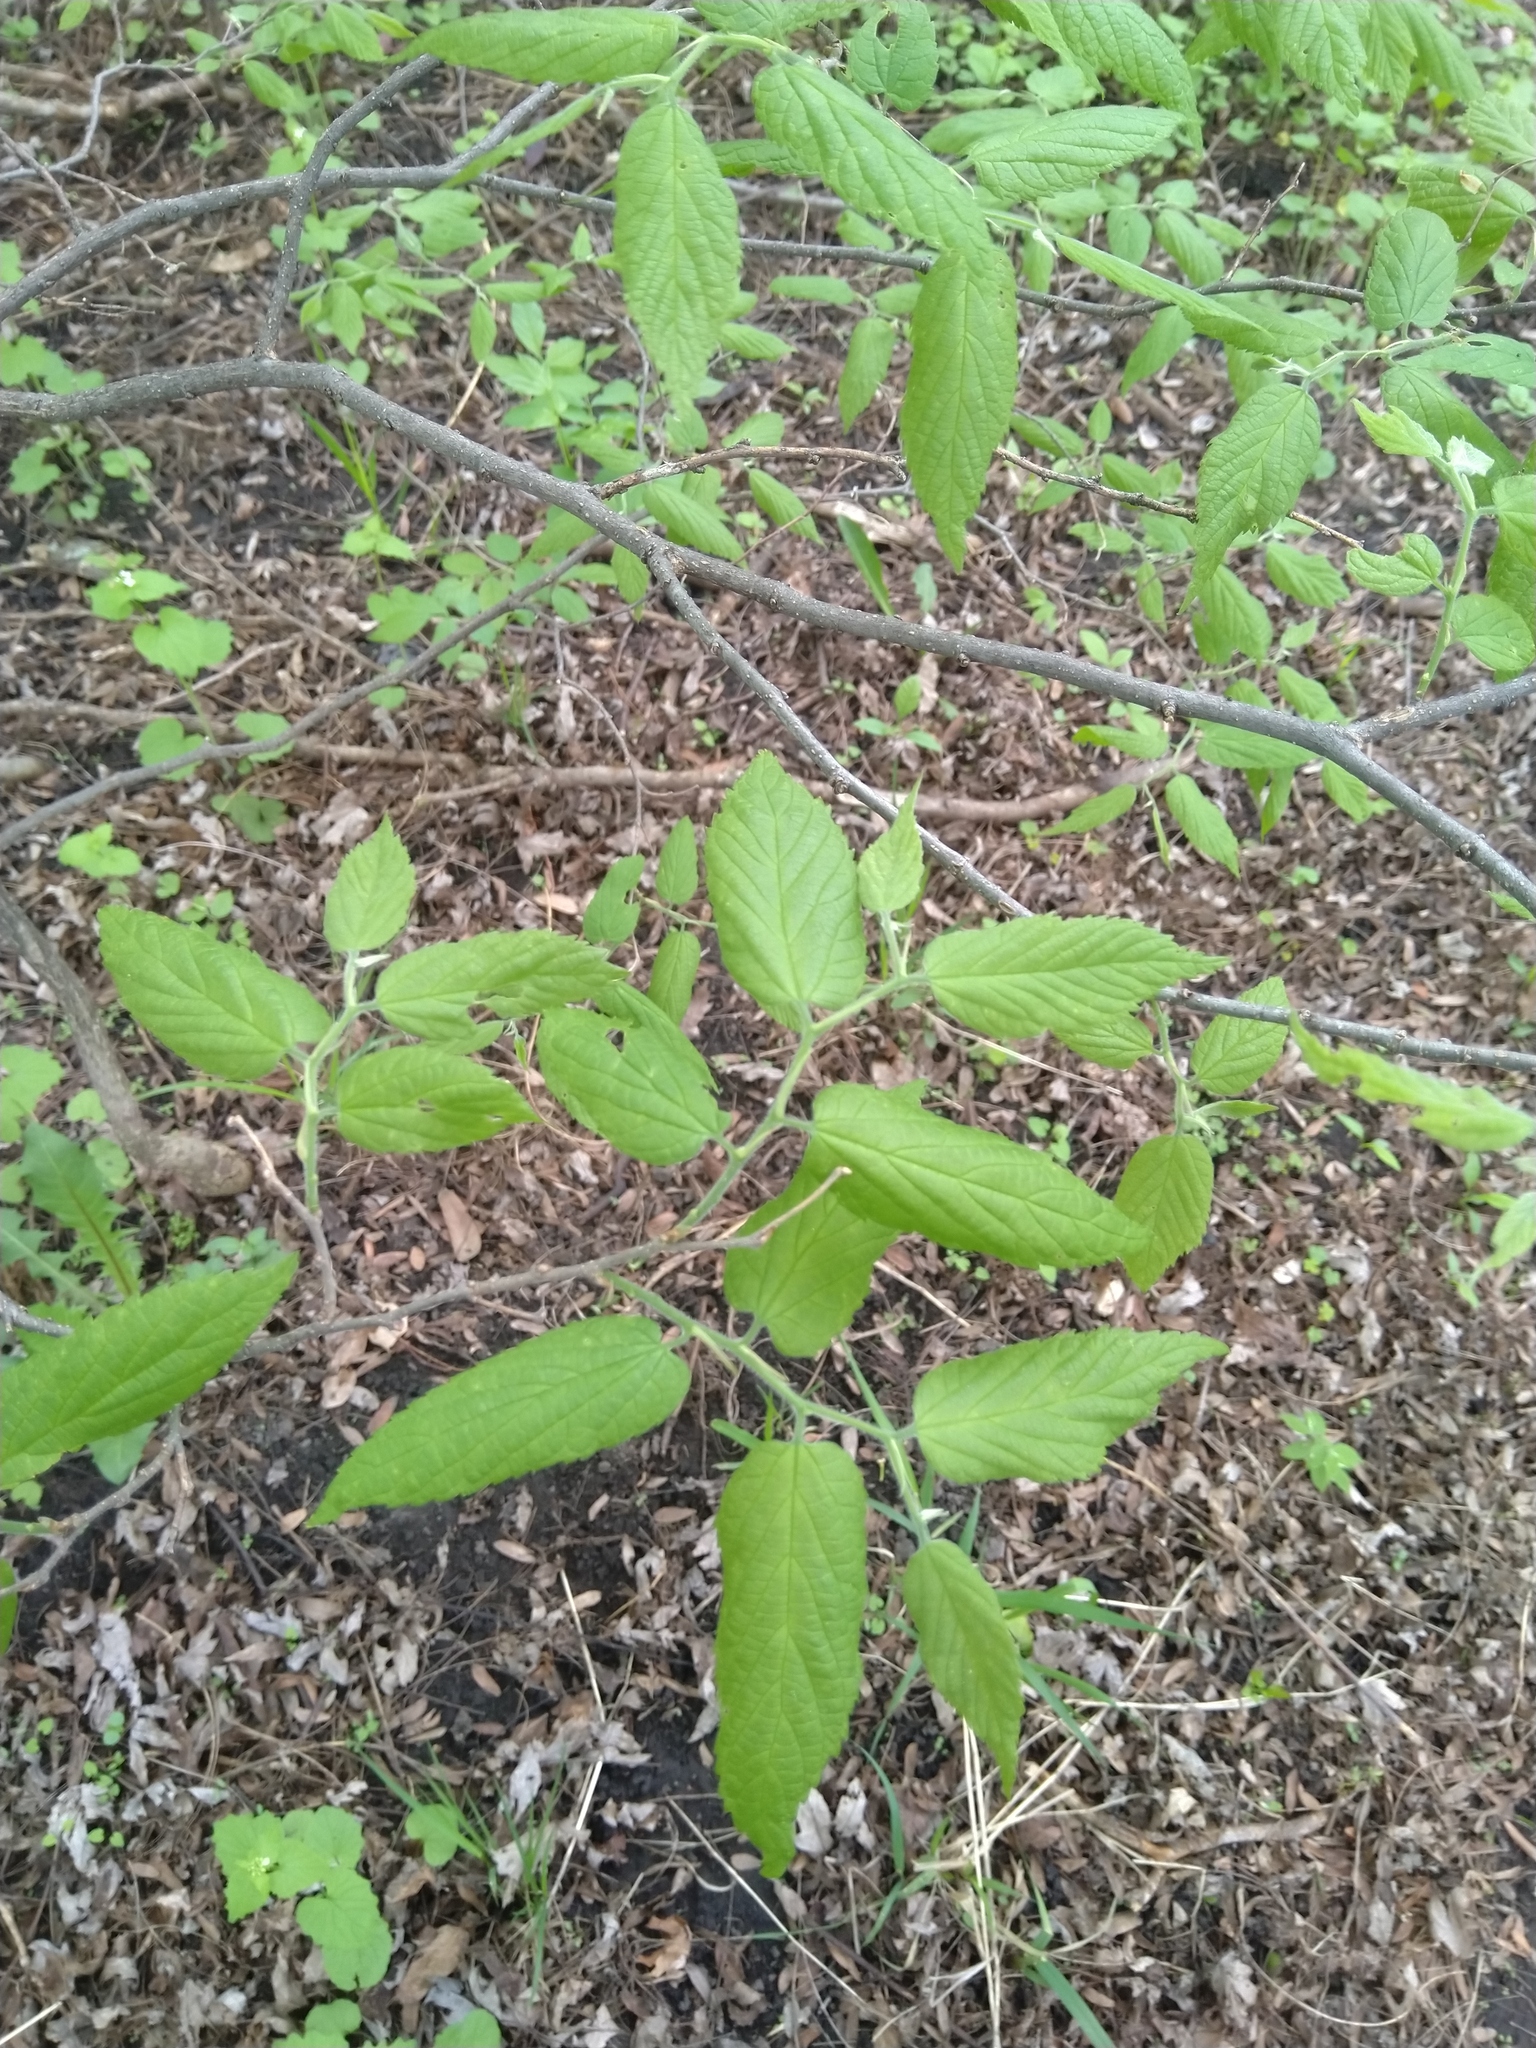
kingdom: Plantae
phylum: Tracheophyta
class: Magnoliopsida
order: Rosales
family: Cannabaceae
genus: Celtis
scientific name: Celtis occidentalis
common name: Common hackberry
